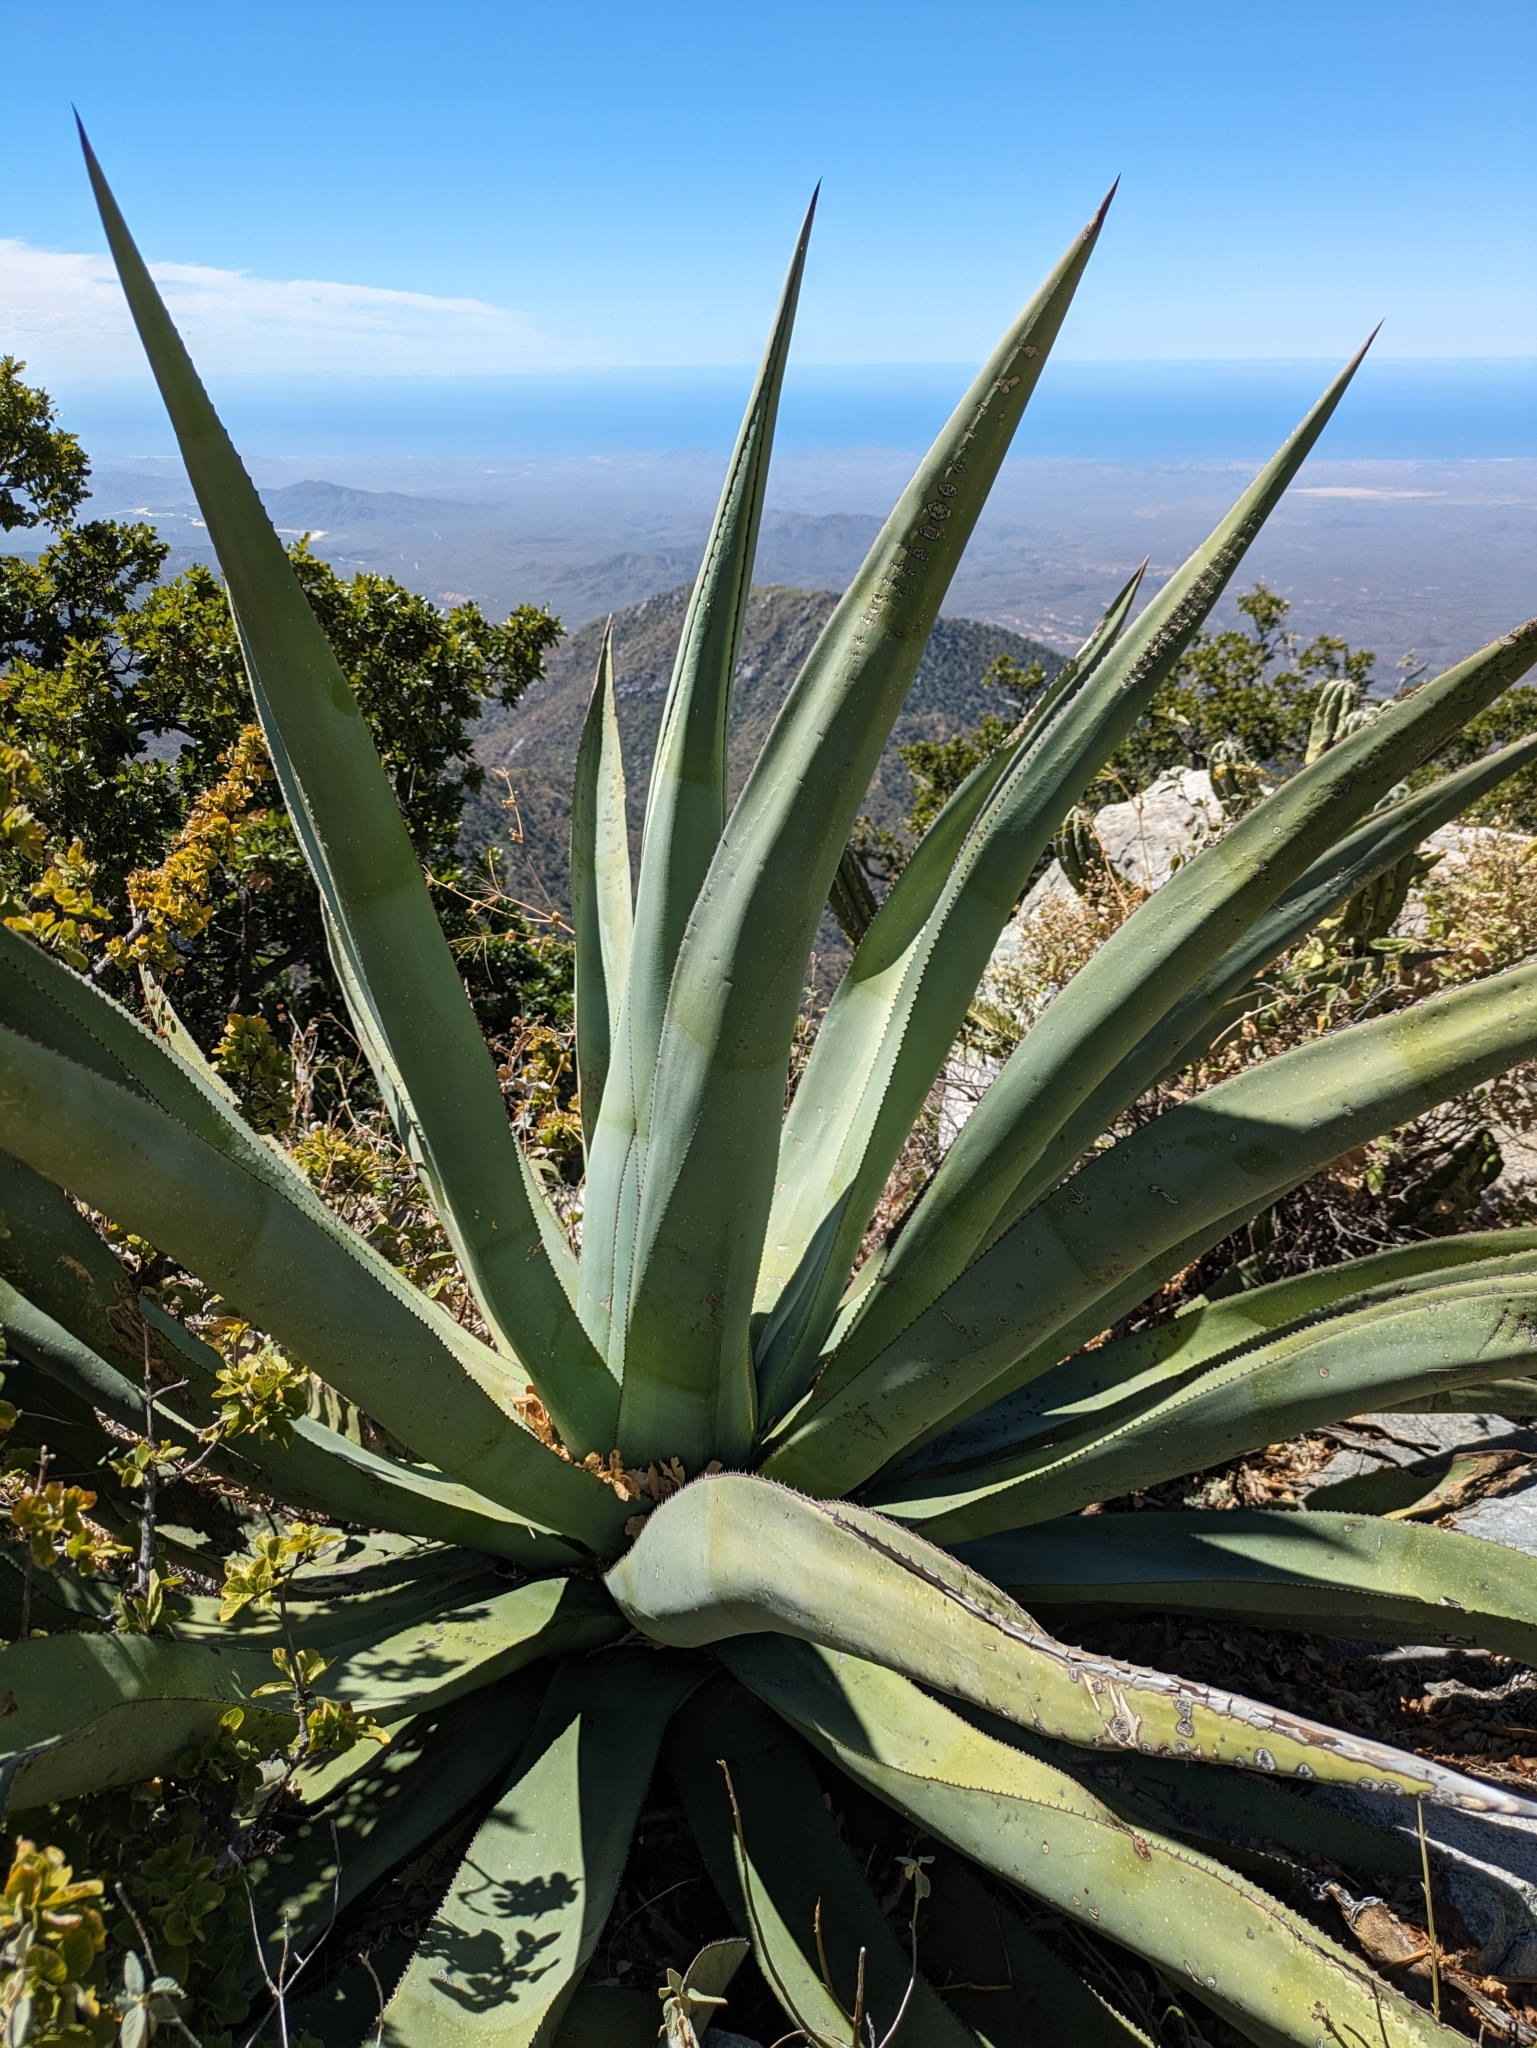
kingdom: Plantae
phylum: Tracheophyta
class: Liliopsida
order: Asparagales
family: Asparagaceae
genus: Agave
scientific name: Agave aurea
